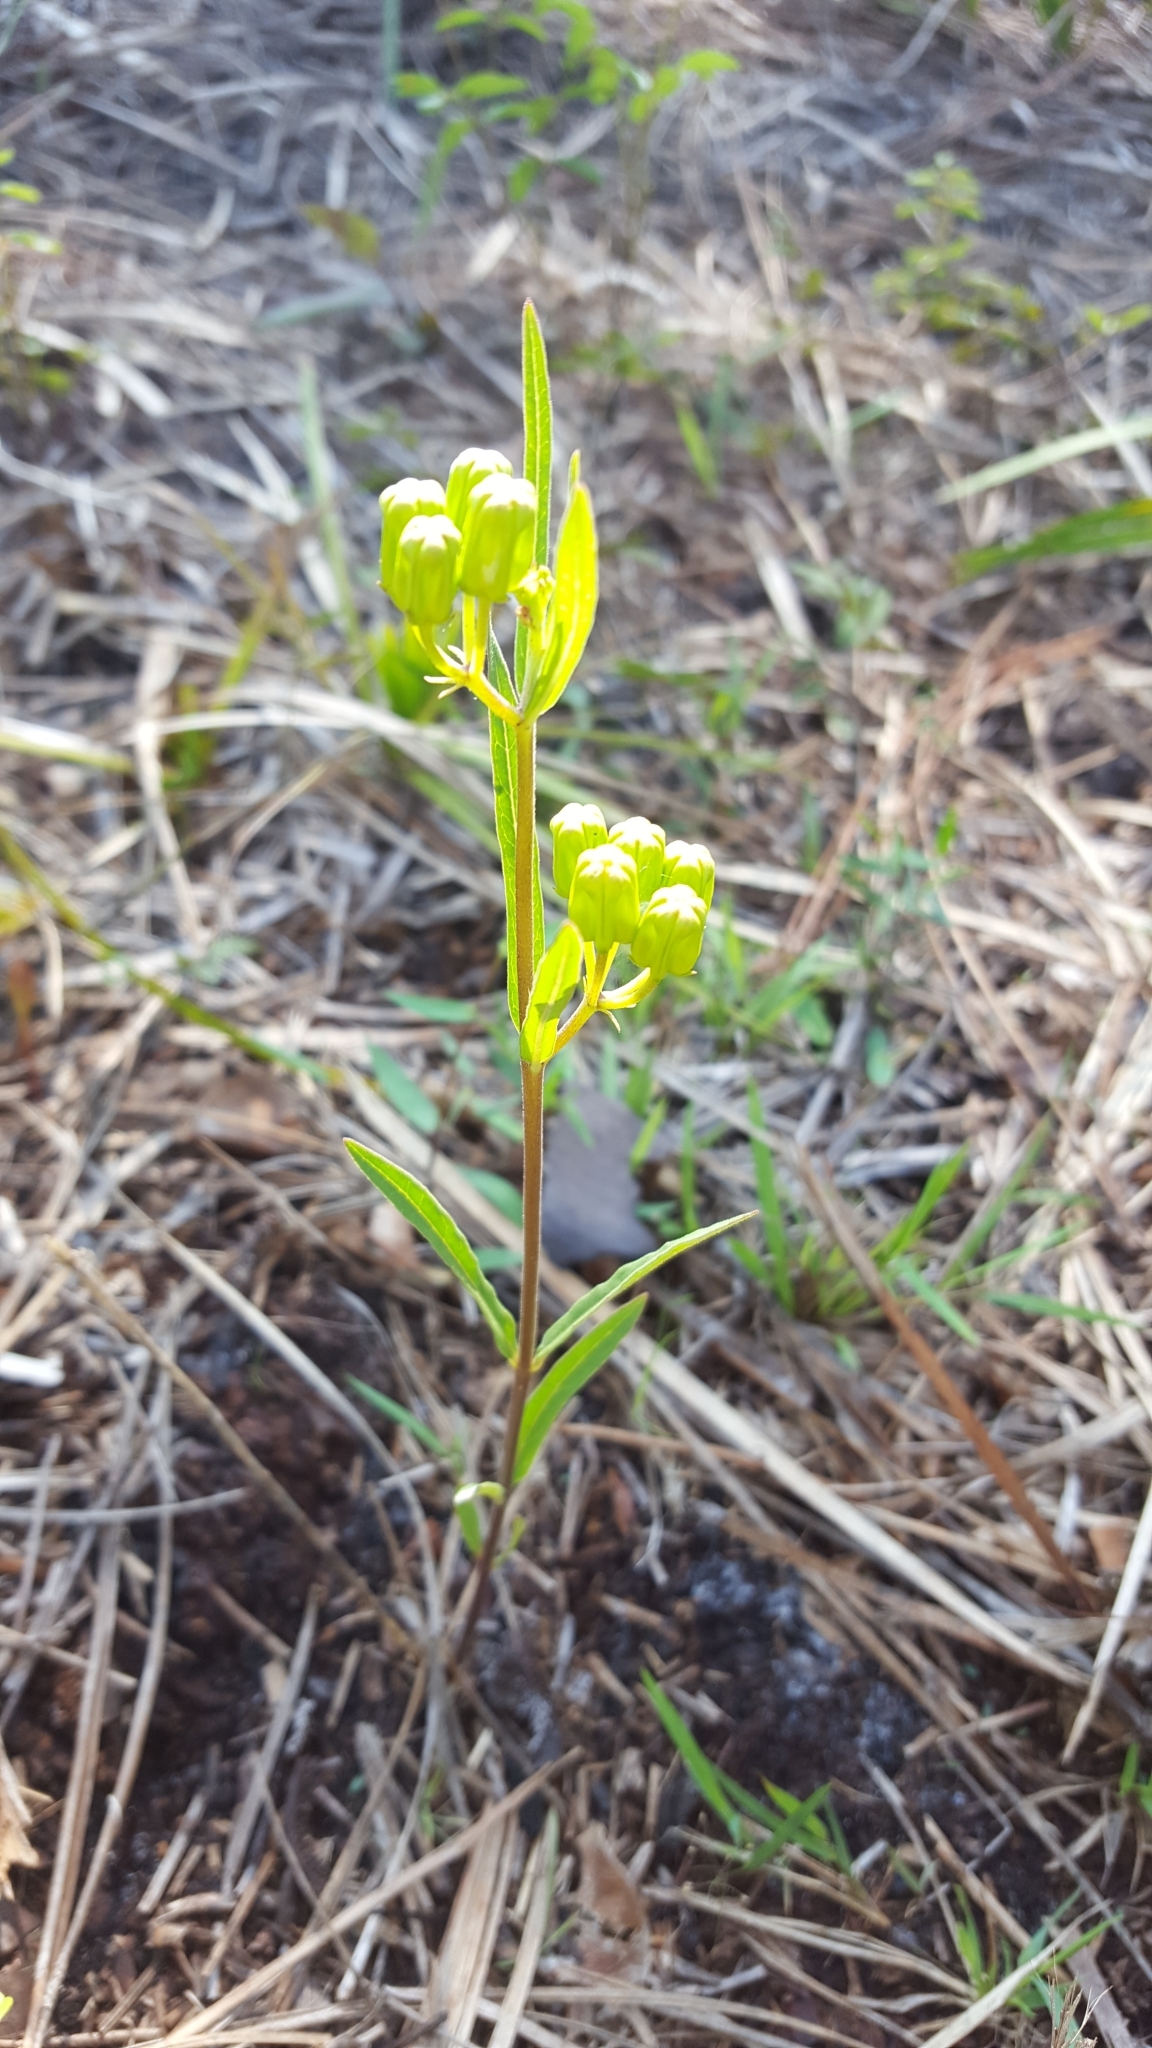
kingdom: Plantae
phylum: Tracheophyta
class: Magnoliopsida
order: Gentianales
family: Apocynaceae
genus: Asclepias
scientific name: Asclepias pedicellata
